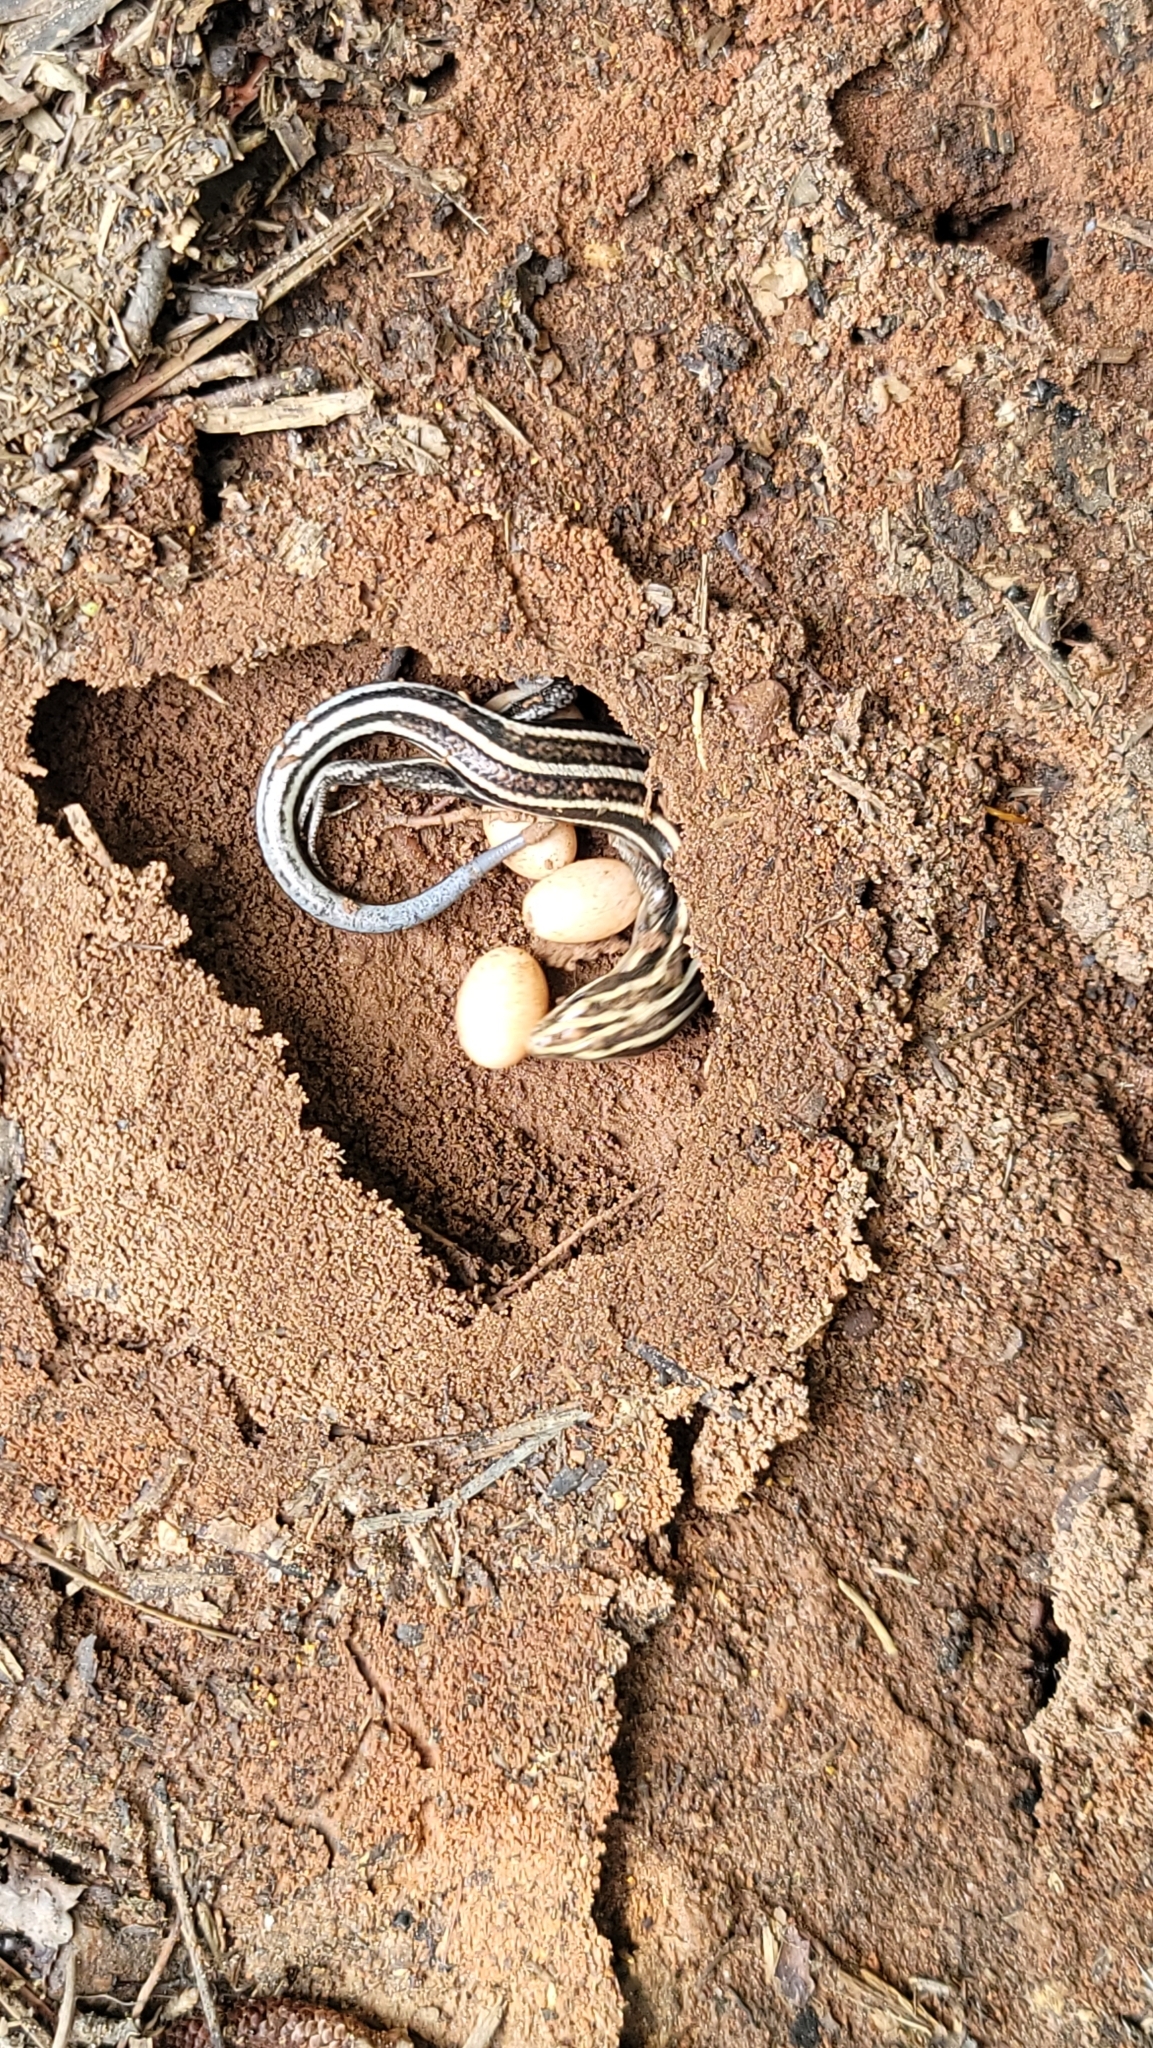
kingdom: Animalia
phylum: Chordata
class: Squamata
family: Scincidae
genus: Plestiodon
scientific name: Plestiodon fasciatus
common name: Five-lined skink
